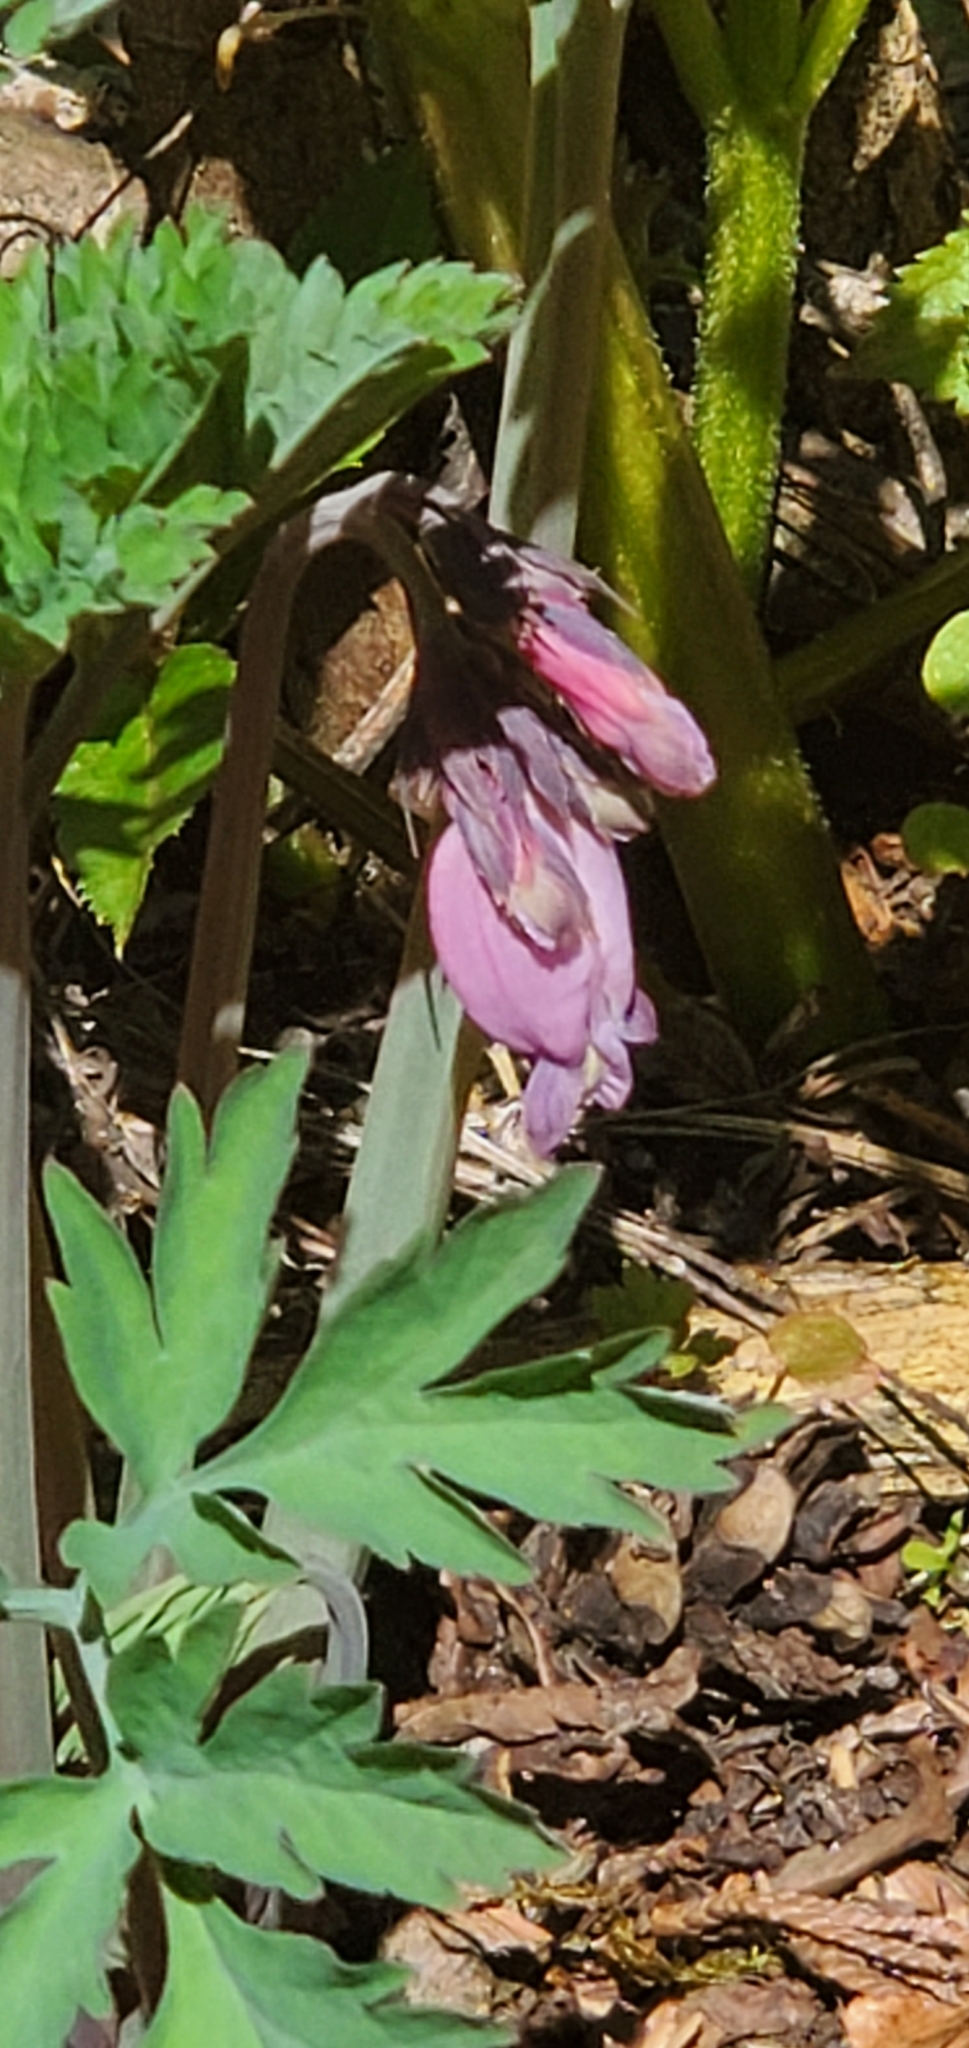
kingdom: Plantae
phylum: Tracheophyta
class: Magnoliopsida
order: Ranunculales
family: Papaveraceae
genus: Dicentra
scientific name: Dicentra formosa
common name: Bleeding-heart
